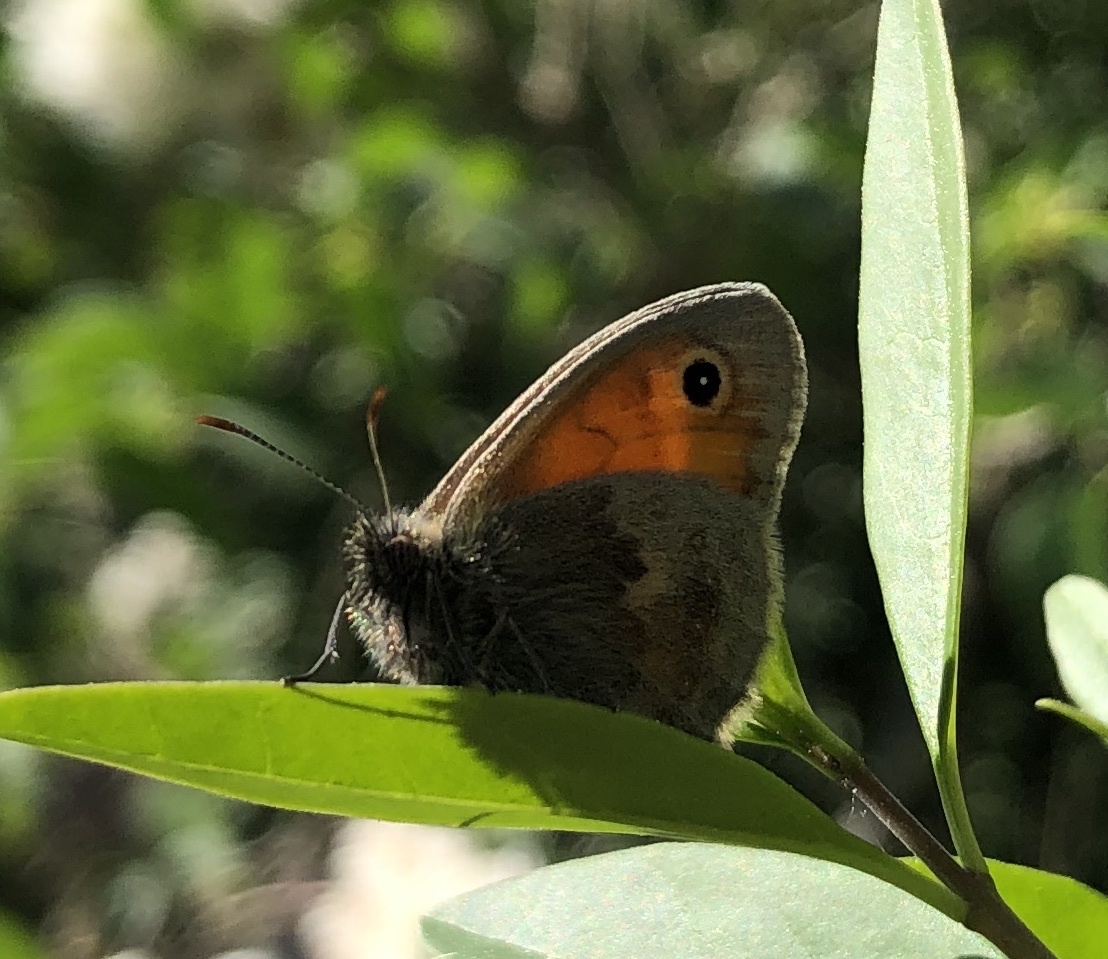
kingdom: Animalia
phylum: Arthropoda
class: Insecta
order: Lepidoptera
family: Nymphalidae
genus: Coenonympha
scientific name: Coenonympha pamphilus
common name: Small heath
